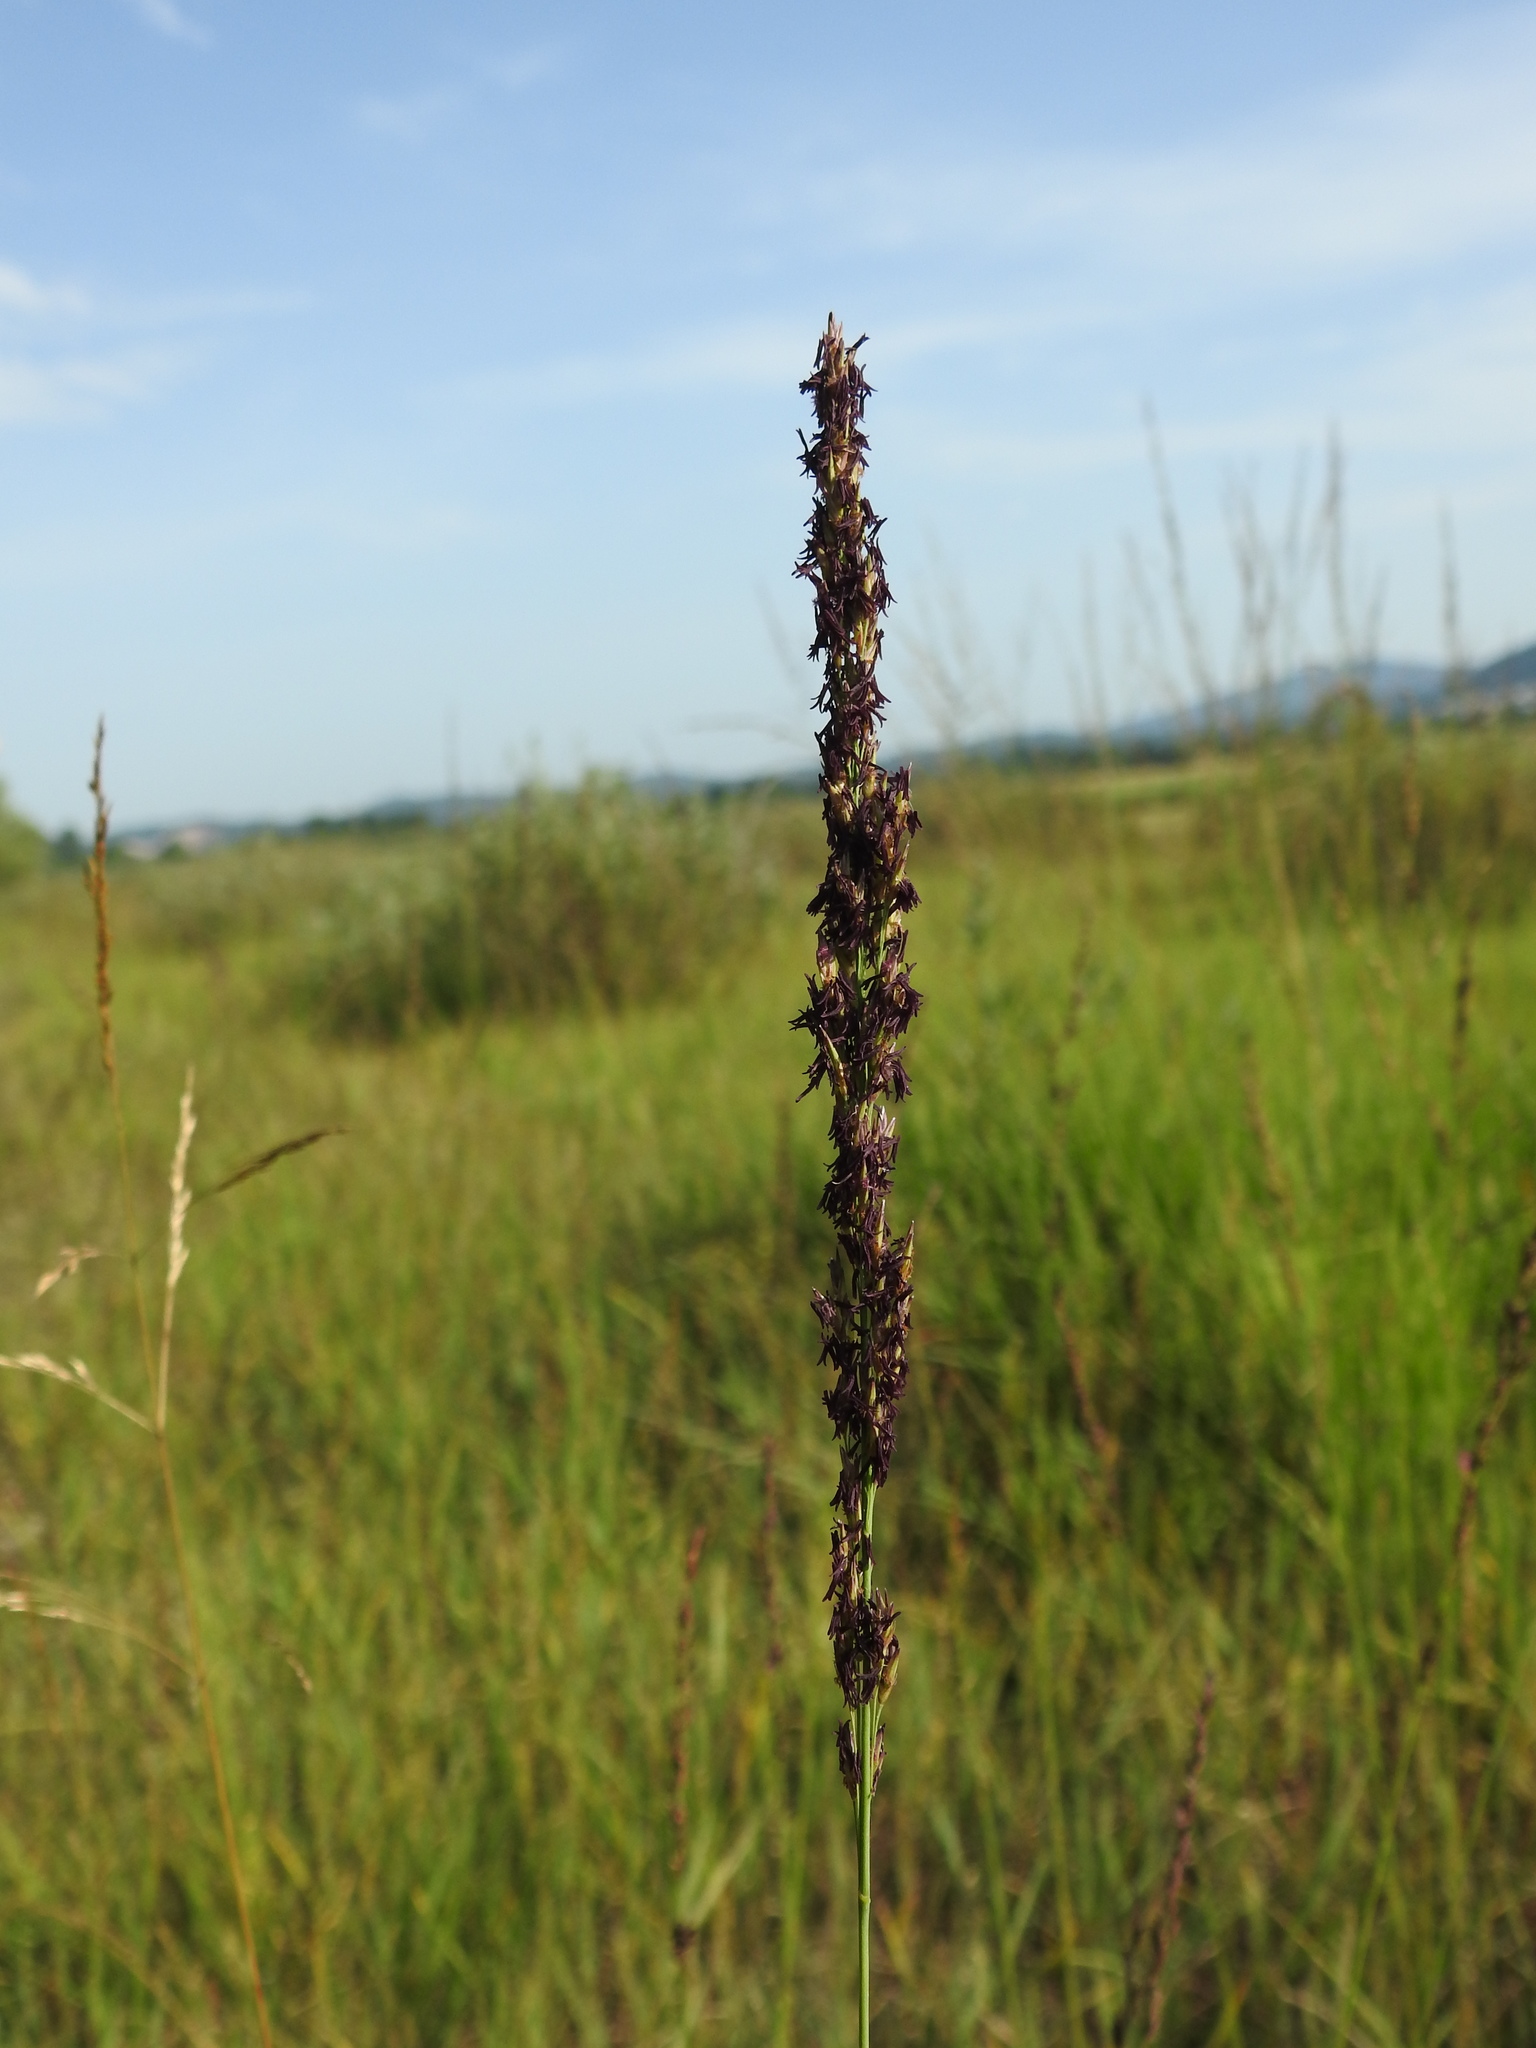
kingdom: Plantae
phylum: Tracheophyta
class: Liliopsida
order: Poales
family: Poaceae
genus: Molinia
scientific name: Molinia caerulea
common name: Purple moor-grass
